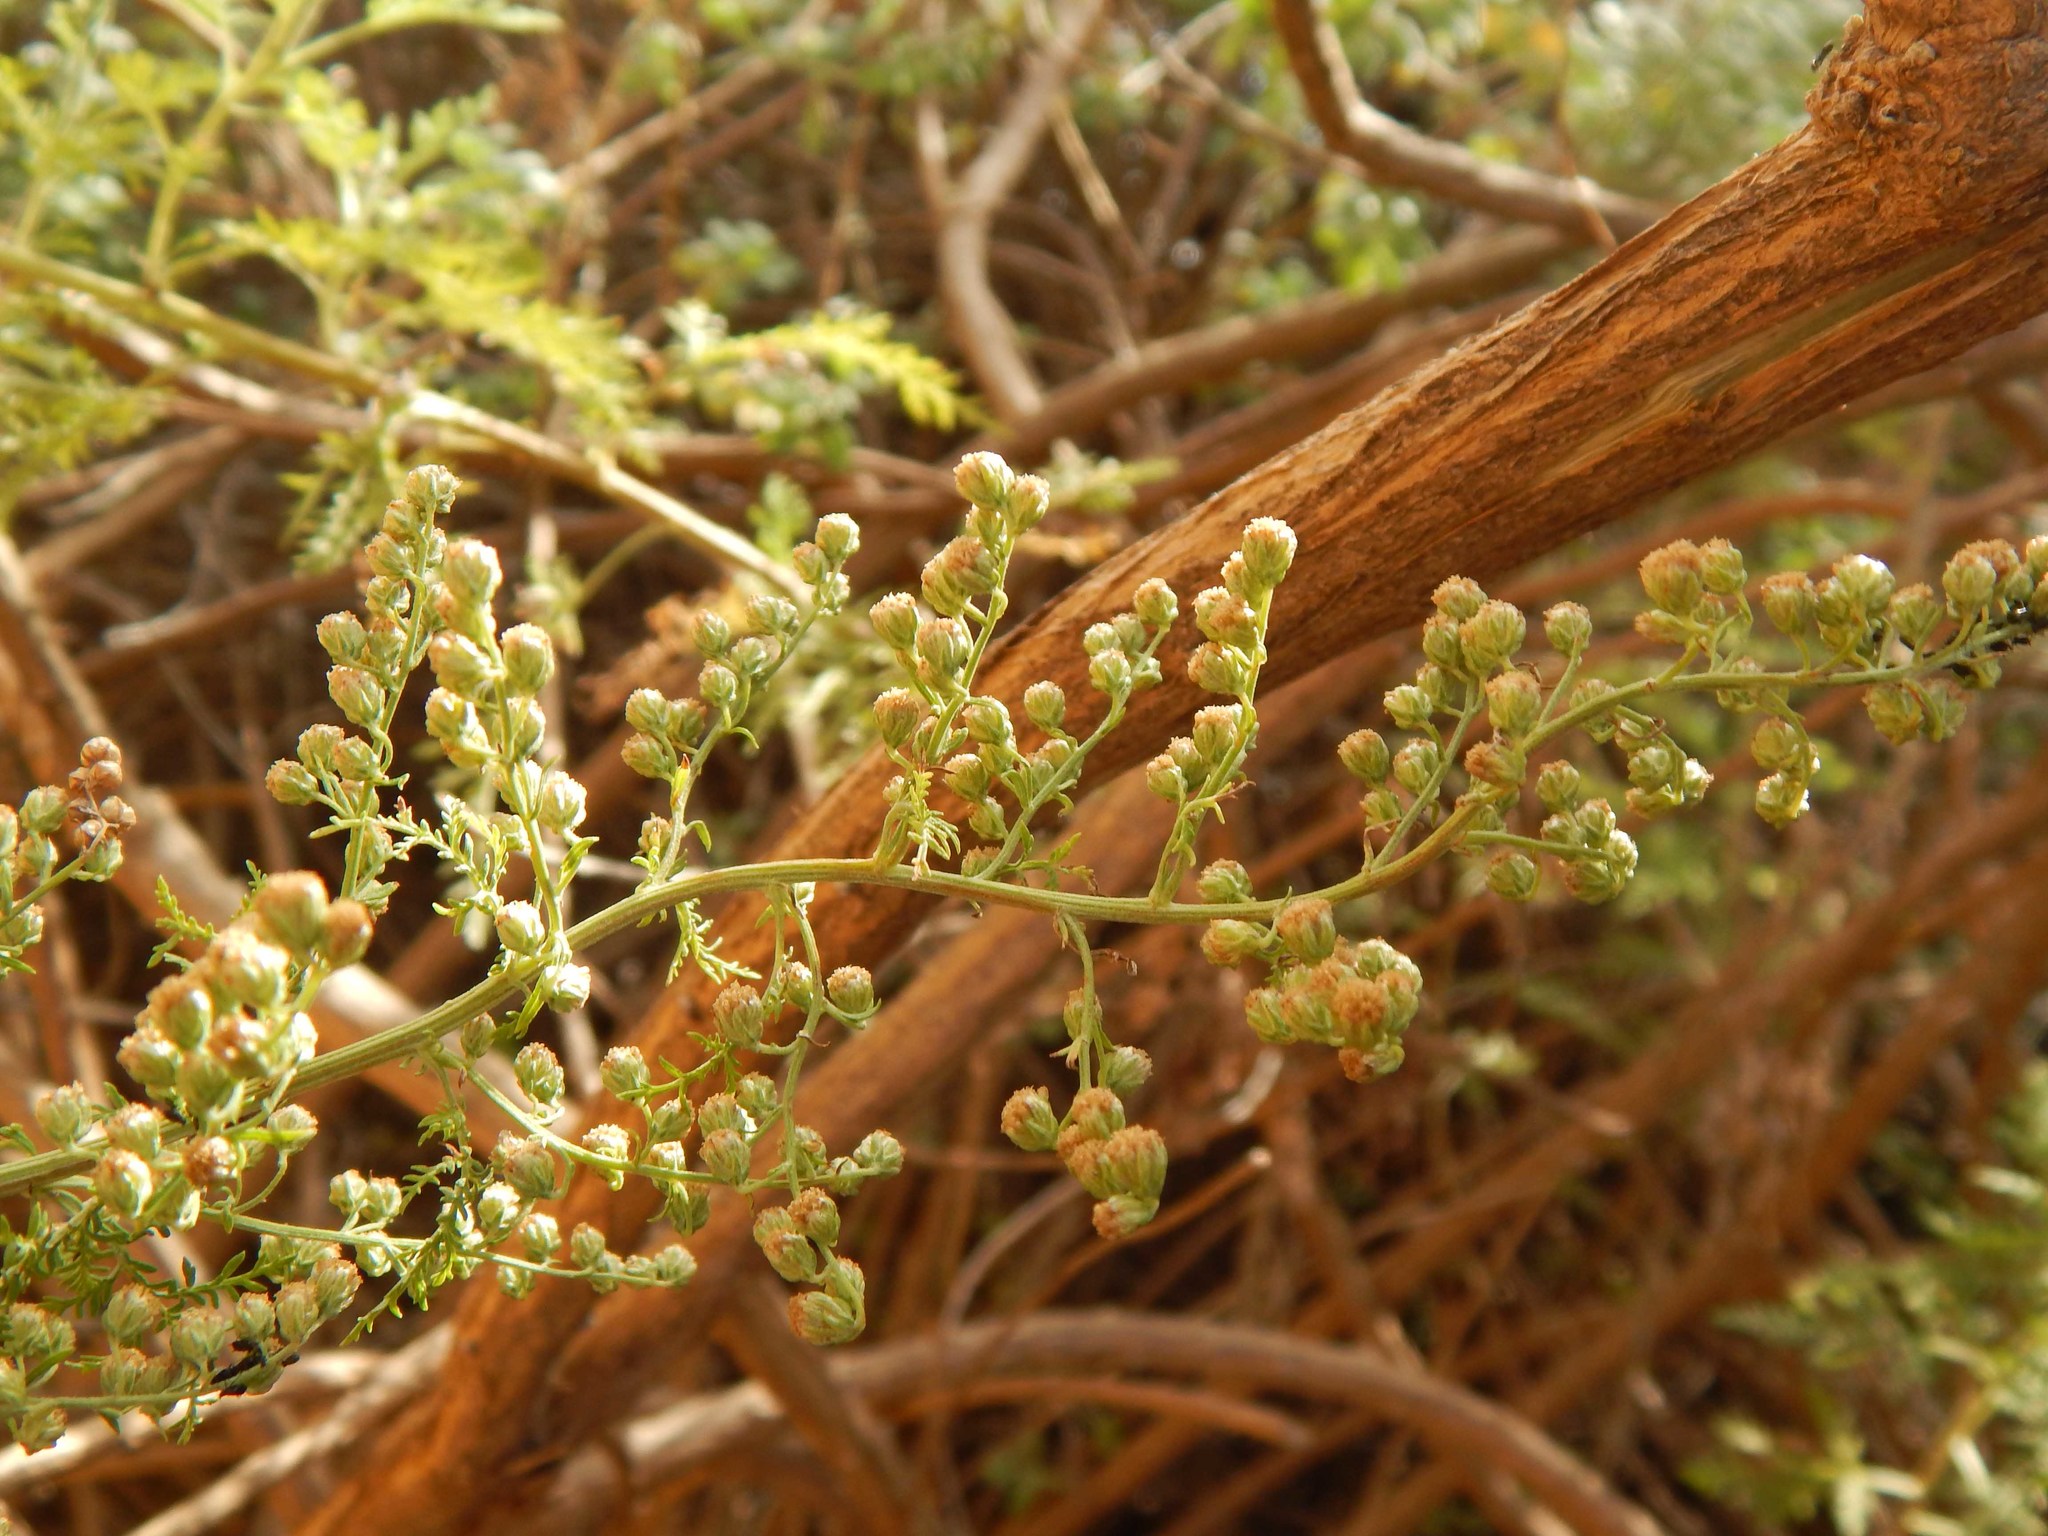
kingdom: Plantae
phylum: Tracheophyta
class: Magnoliopsida
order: Asterales
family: Asteraceae
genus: Artemisia
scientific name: Artemisia afra
